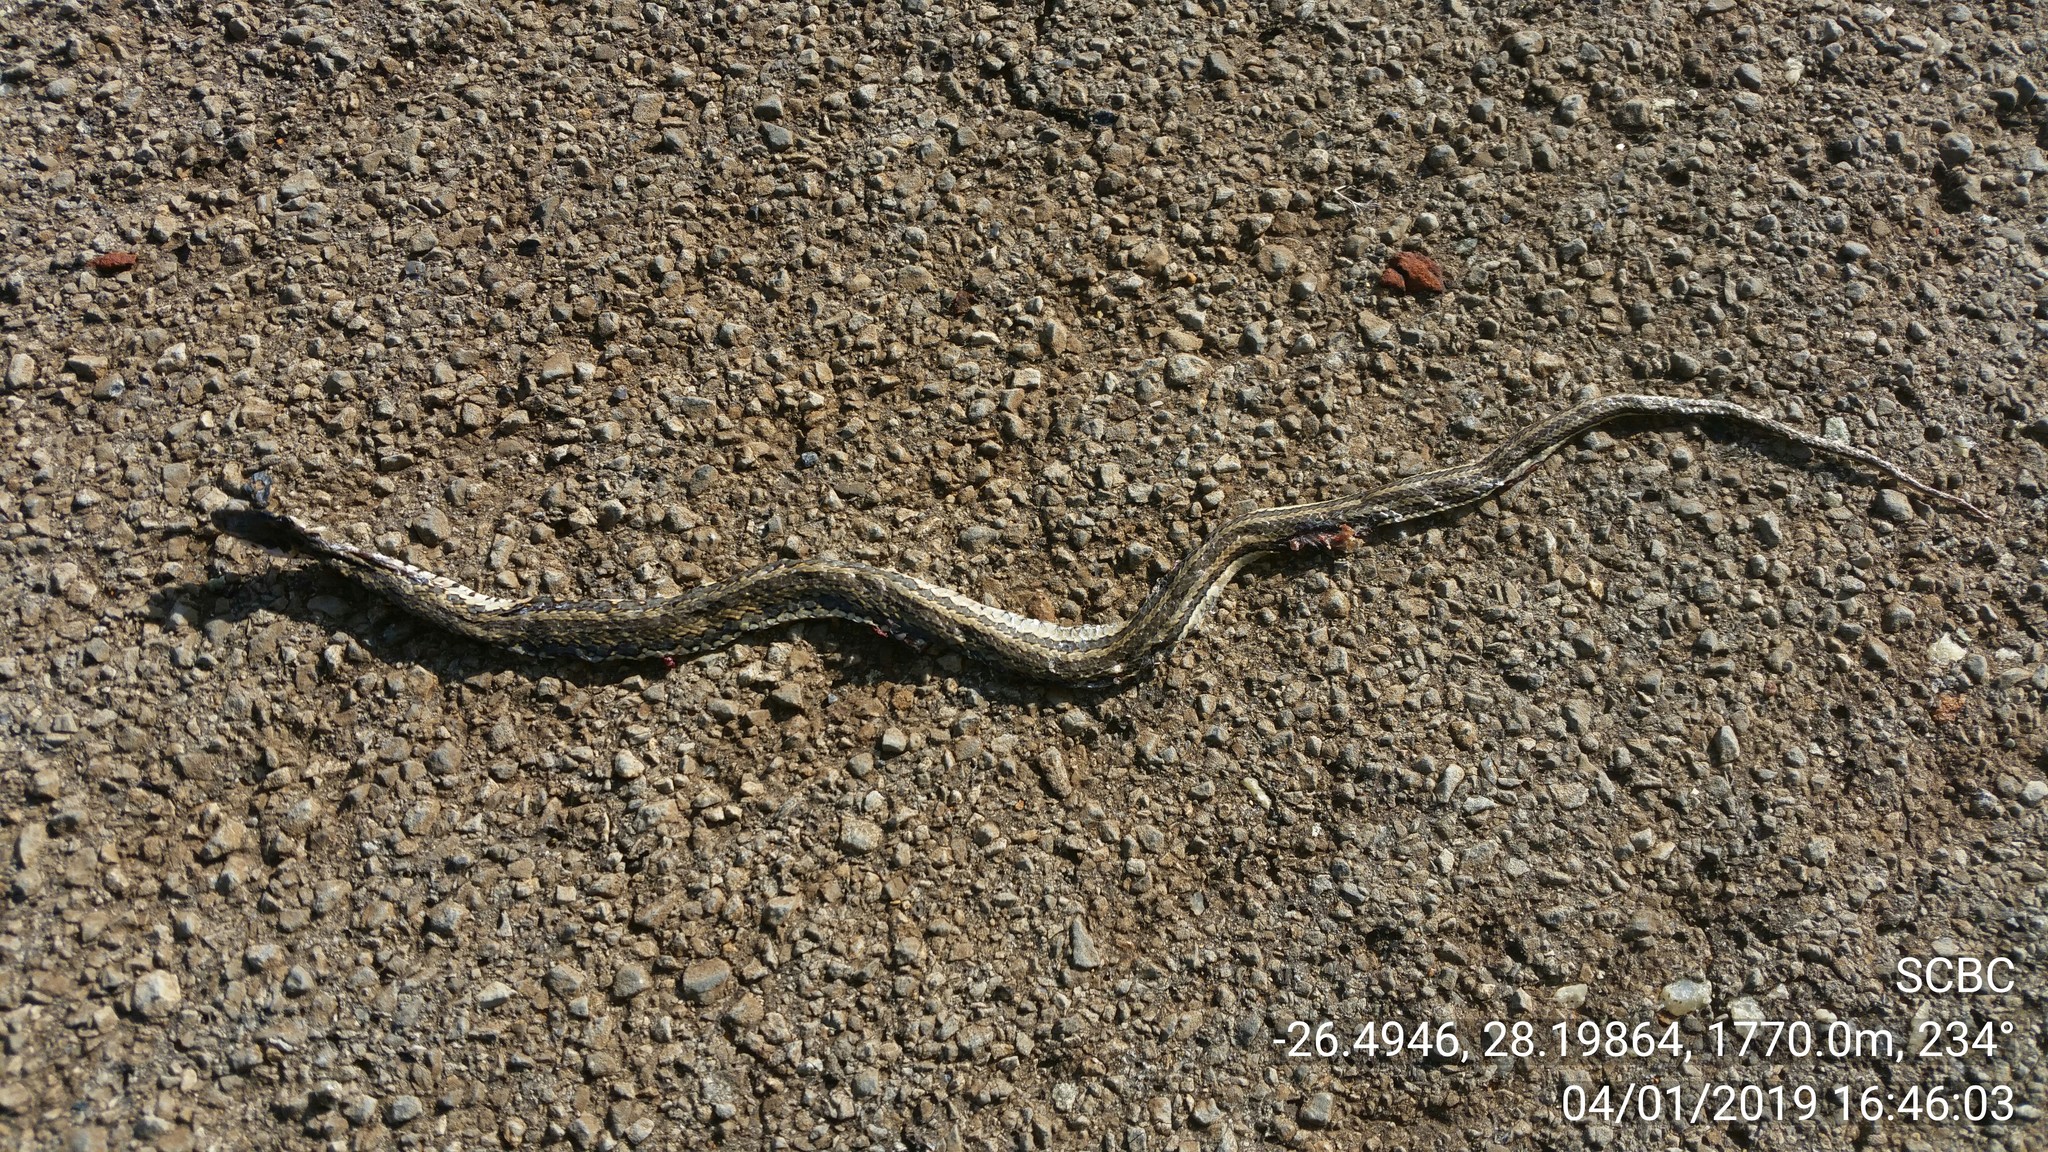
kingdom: Animalia
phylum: Chordata
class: Squamata
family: Psammophiidae
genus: Psammophylax
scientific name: Psammophylax rhombeatus
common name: Rhombic skaapsteker
